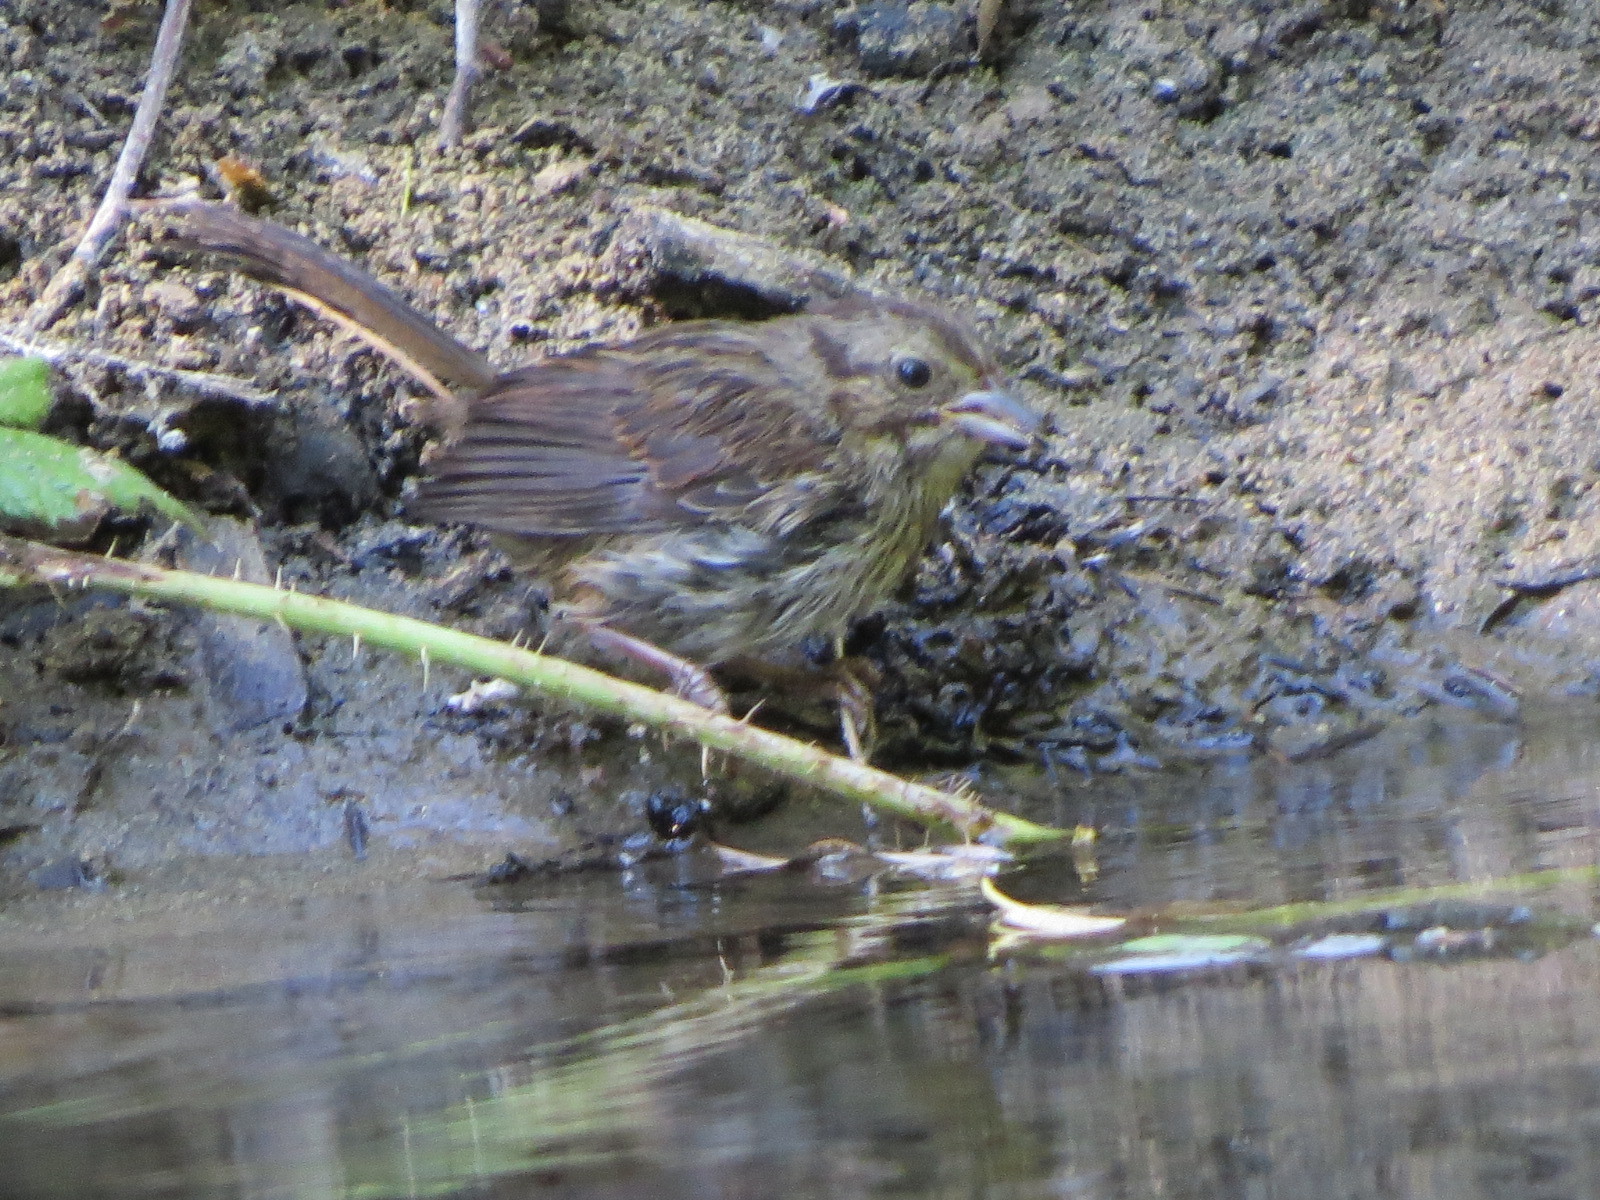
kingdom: Animalia
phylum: Chordata
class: Aves
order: Passeriformes
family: Passerellidae
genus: Melospiza
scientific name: Melospiza melodia
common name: Song sparrow
